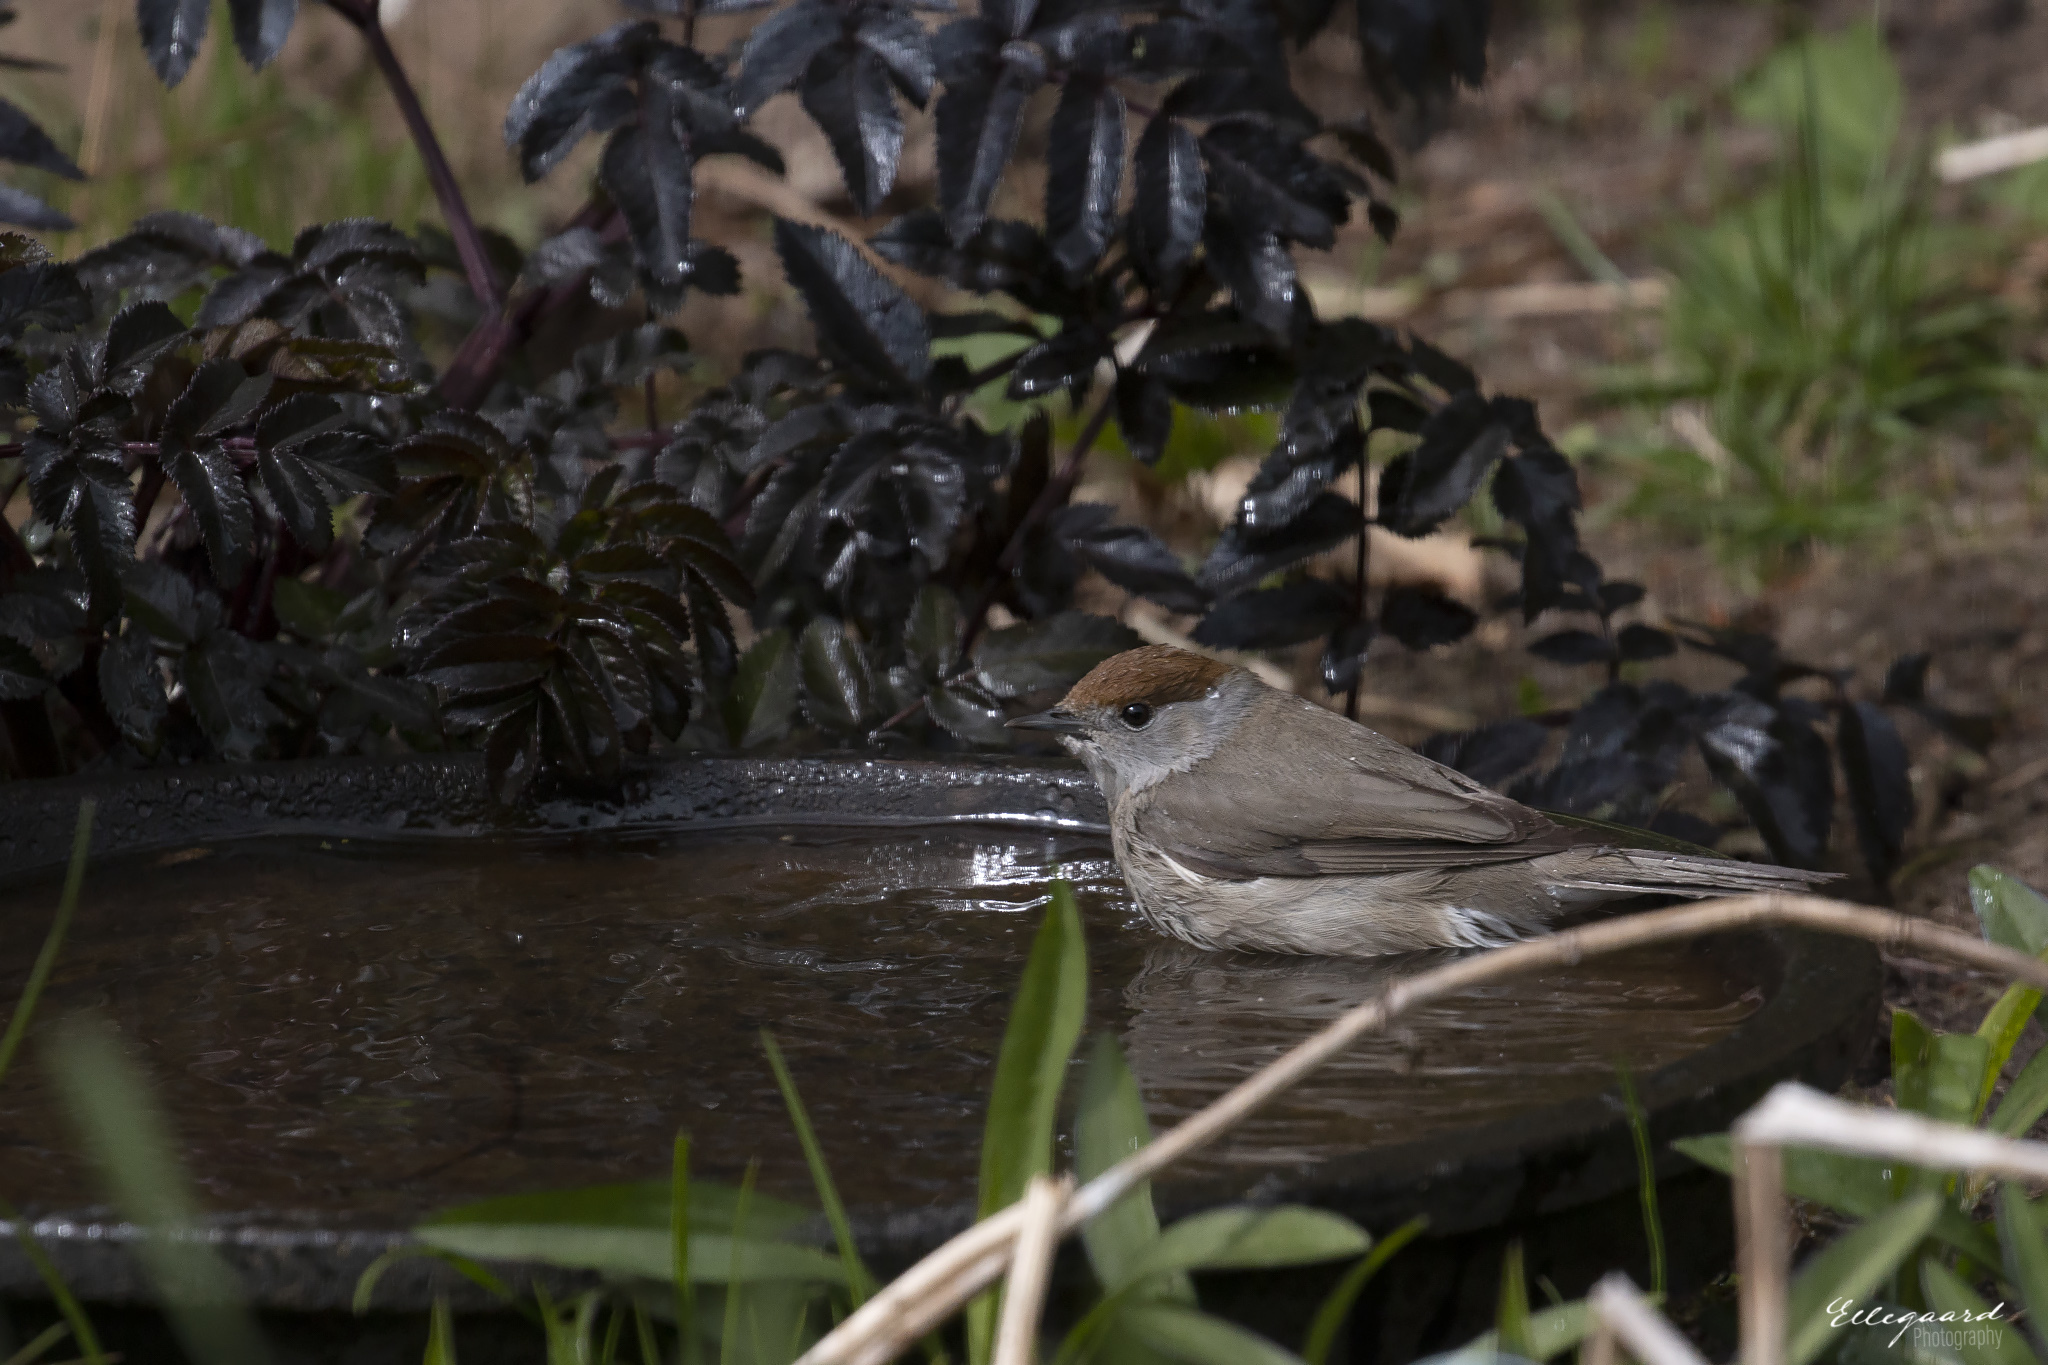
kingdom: Animalia
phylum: Chordata
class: Aves
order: Passeriformes
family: Sylviidae
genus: Sylvia
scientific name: Sylvia atricapilla
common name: Eurasian blackcap
